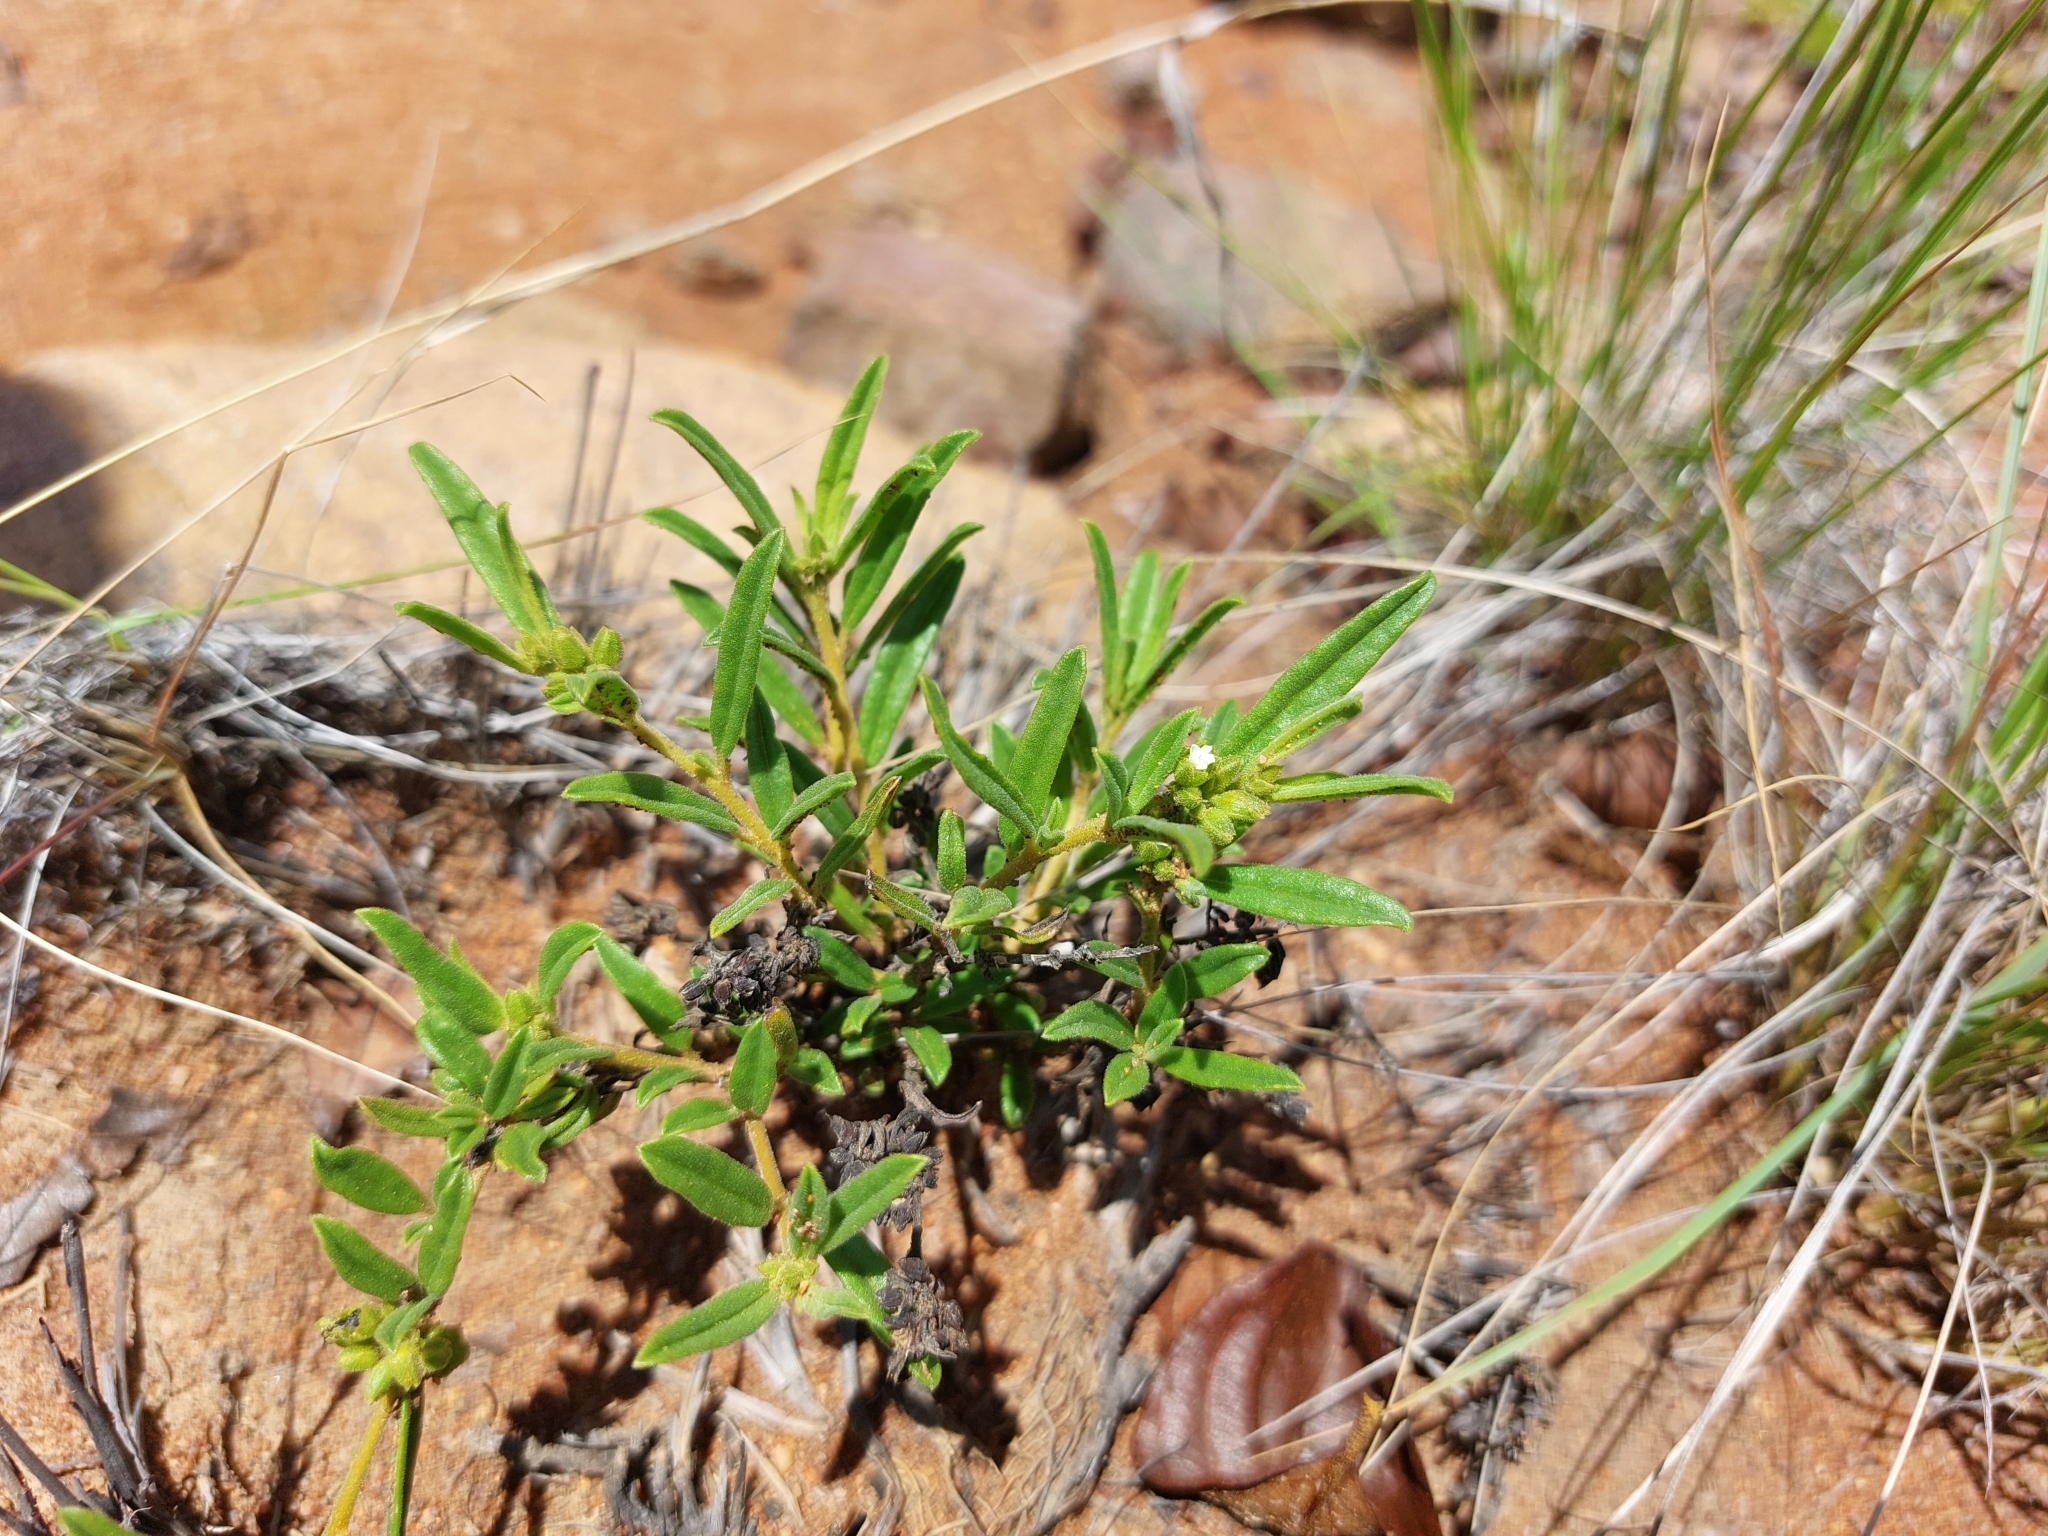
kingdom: Plantae
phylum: Tracheophyta
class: Magnoliopsida
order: Caryophyllales
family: Limeaceae
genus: Limeum
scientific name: Limeum viscosum
